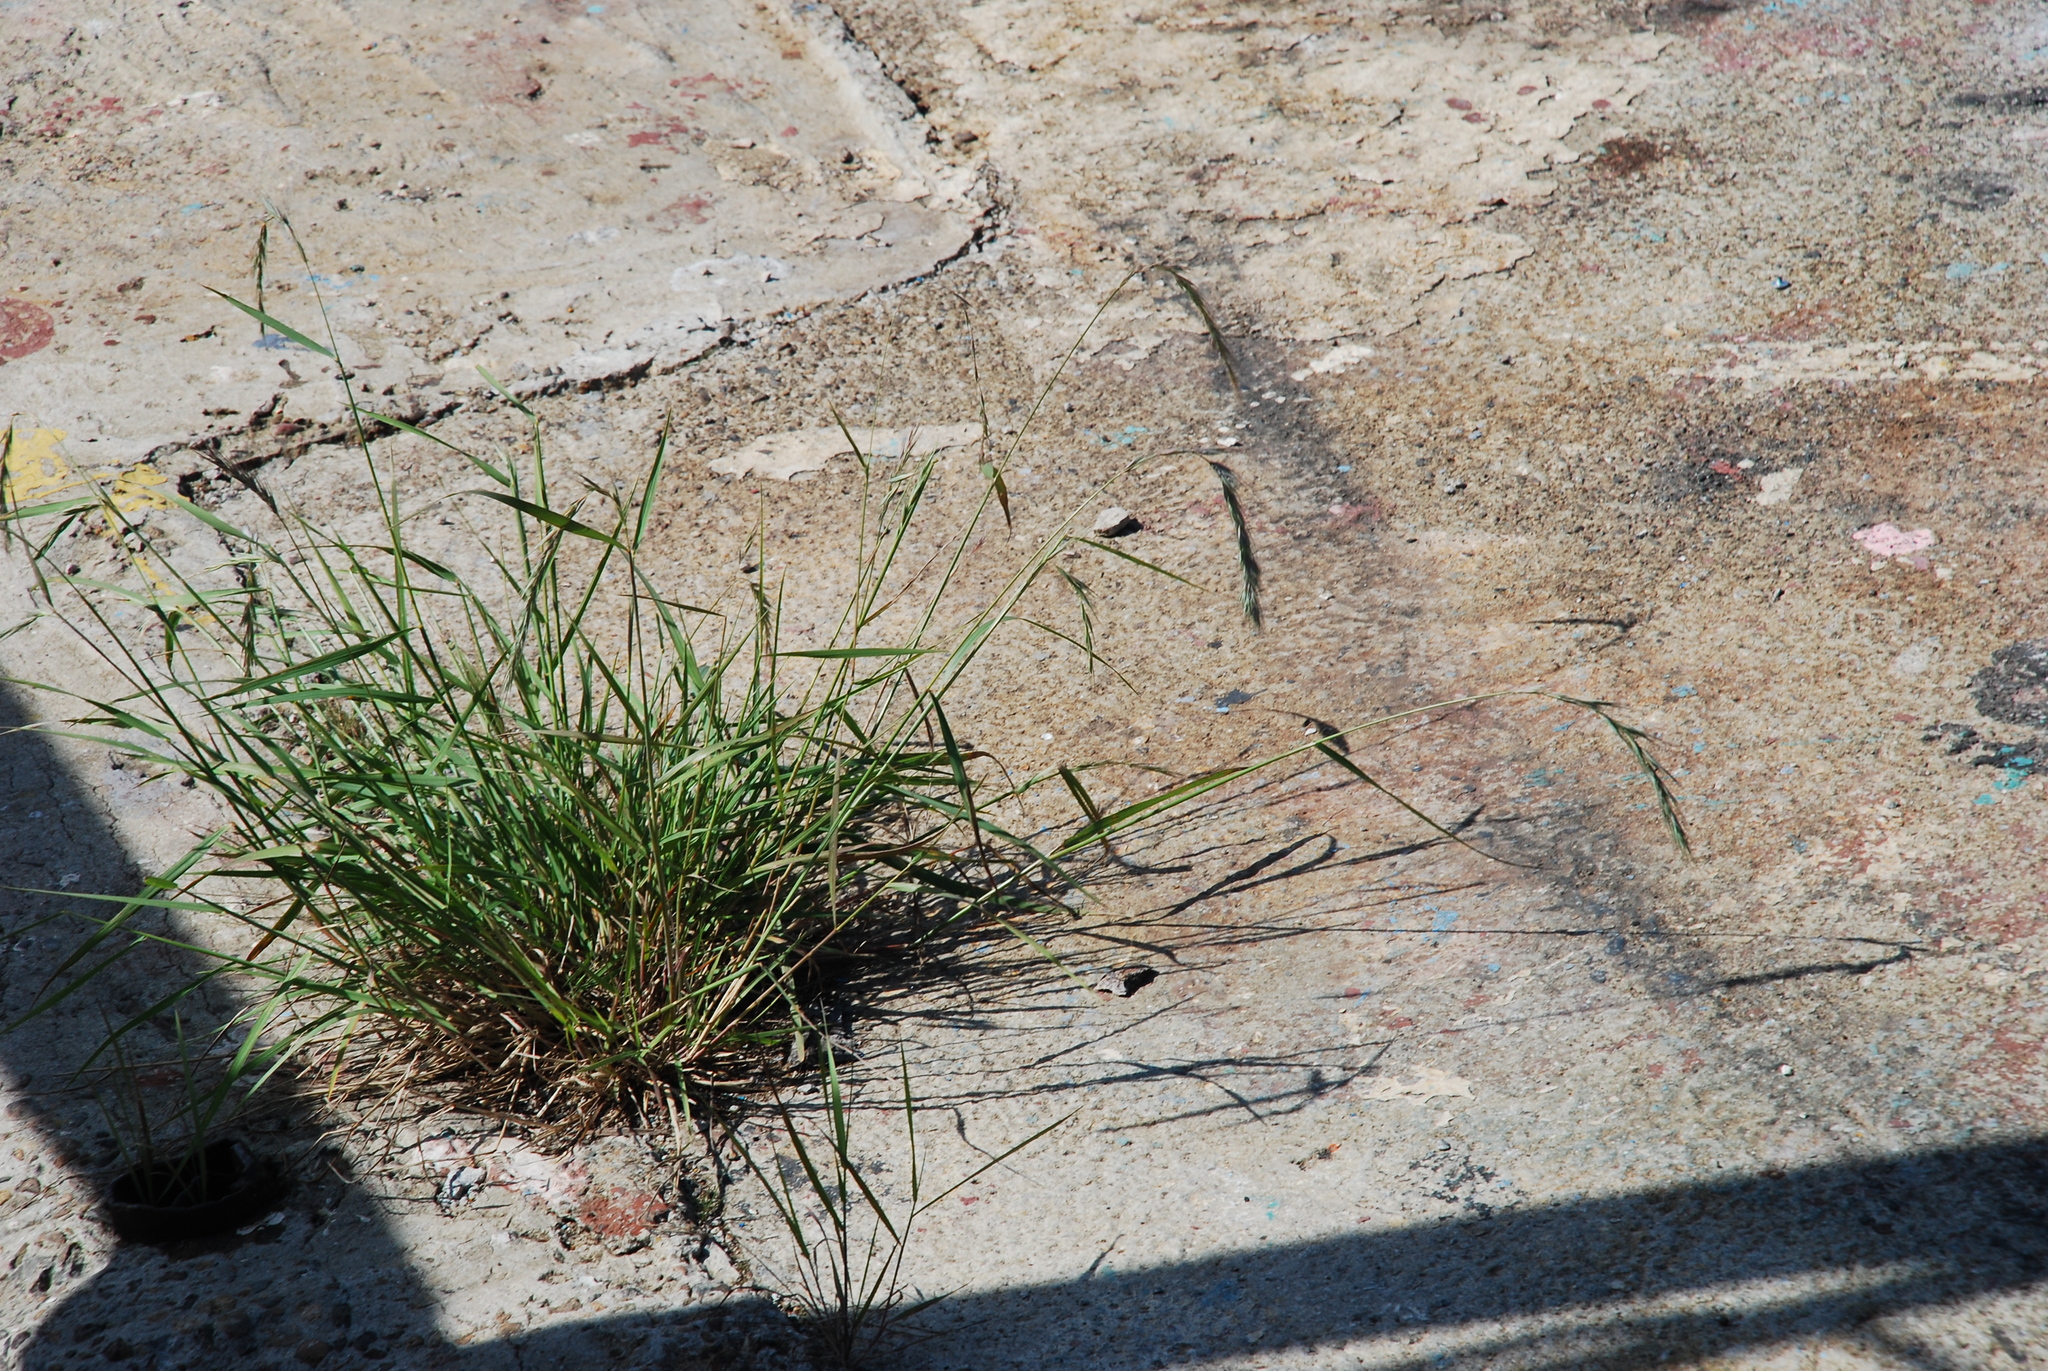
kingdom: Plantae
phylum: Tracheophyta
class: Liliopsida
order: Poales
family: Poaceae
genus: Elymus
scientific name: Elymus sibiricus
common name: Siberian wildrye
